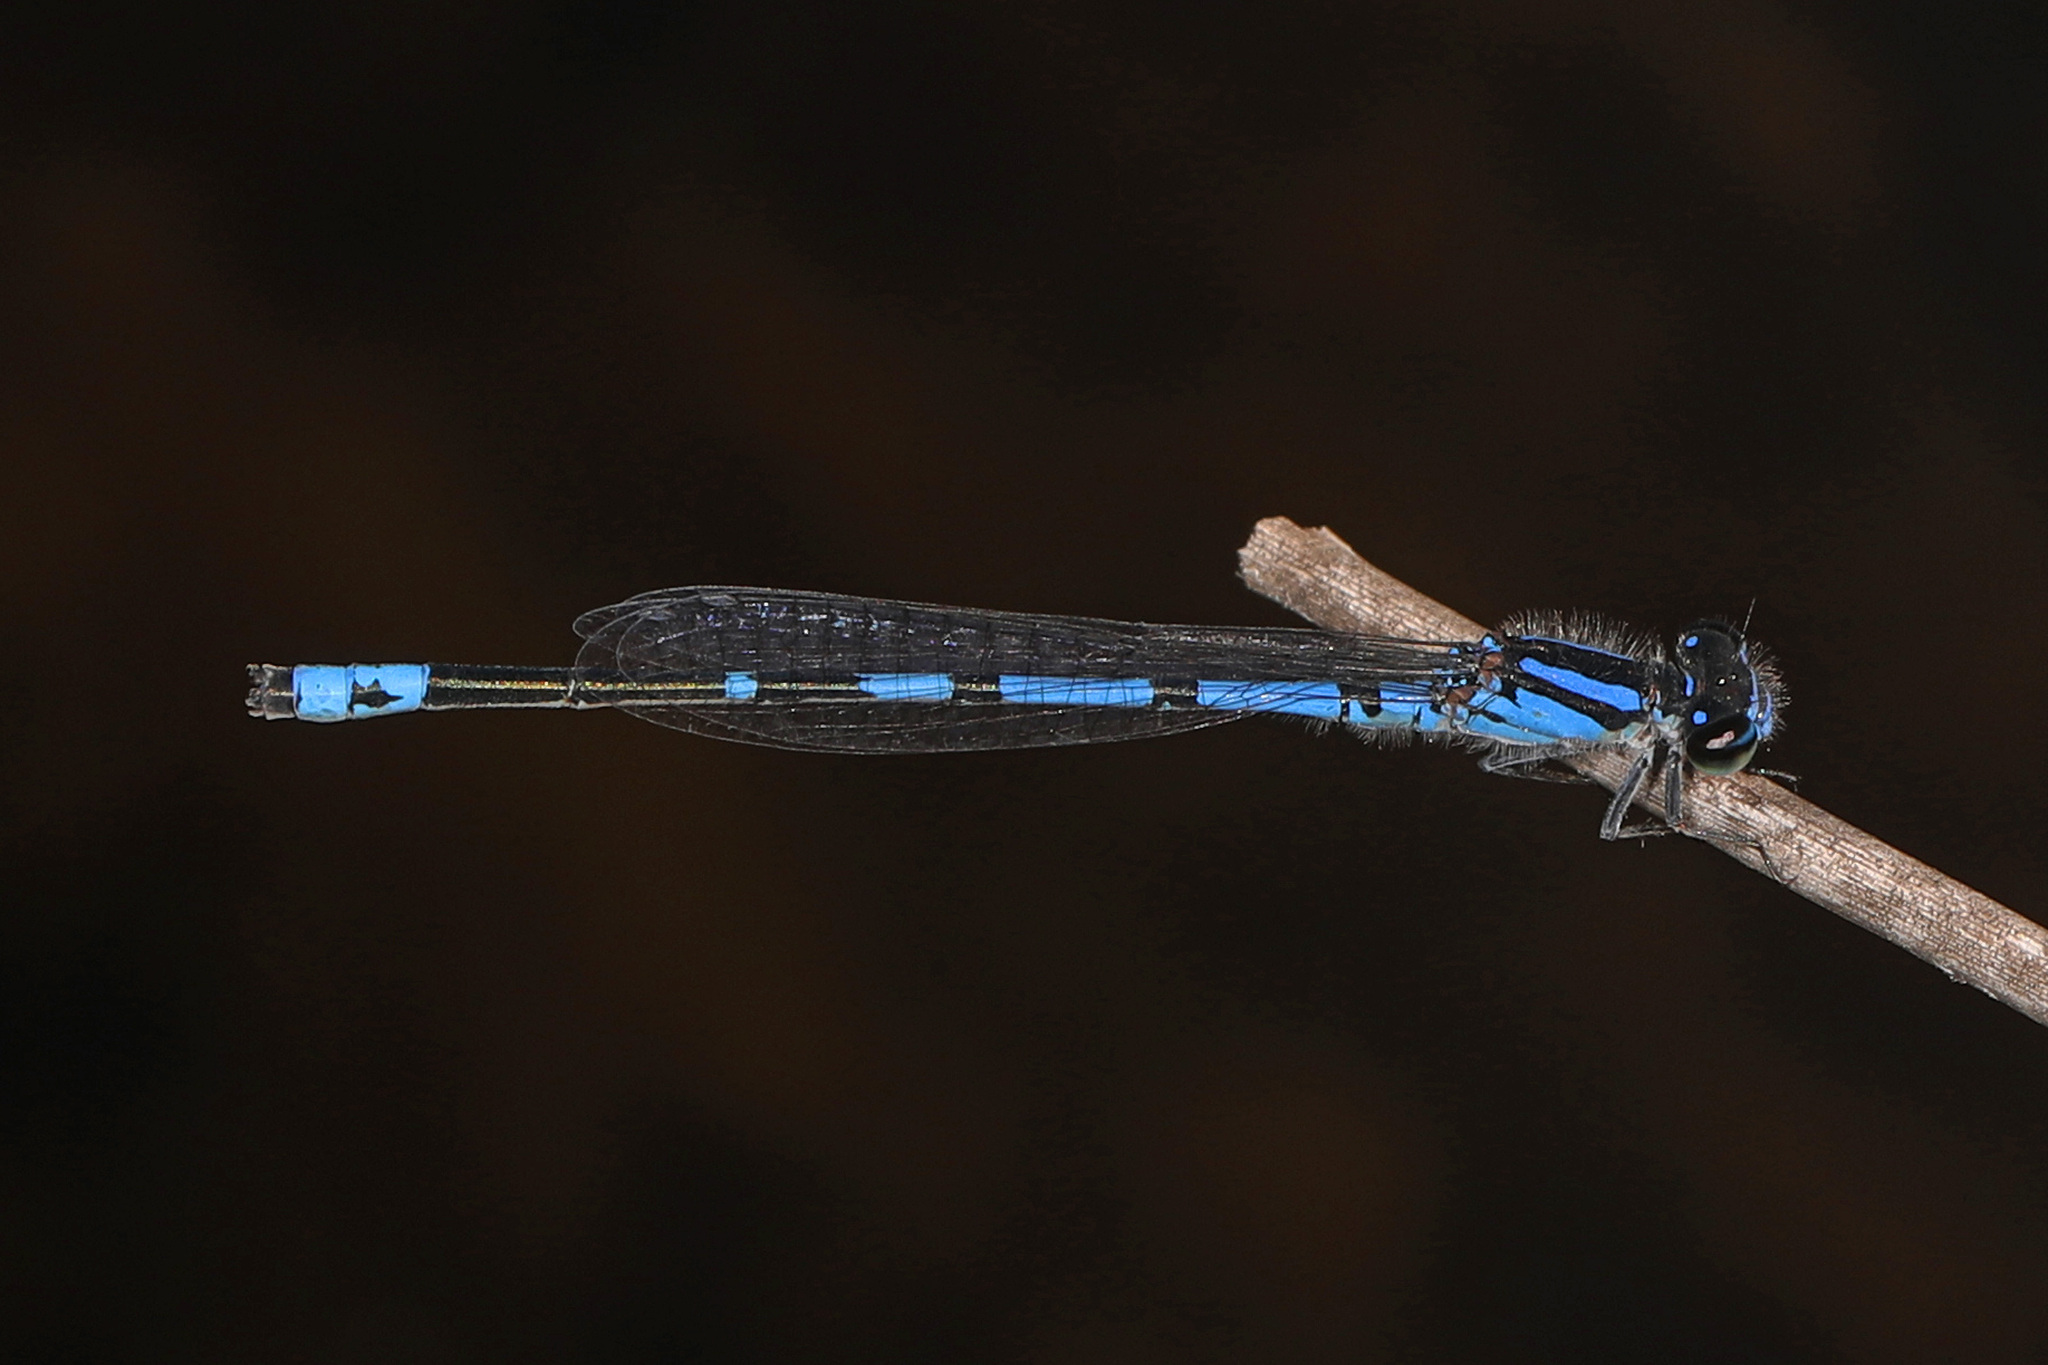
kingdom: Animalia
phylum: Arthropoda
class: Insecta
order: Odonata
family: Coenagrionidae
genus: Enallagma
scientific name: Enallagma davisi
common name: Sandhill bluet
